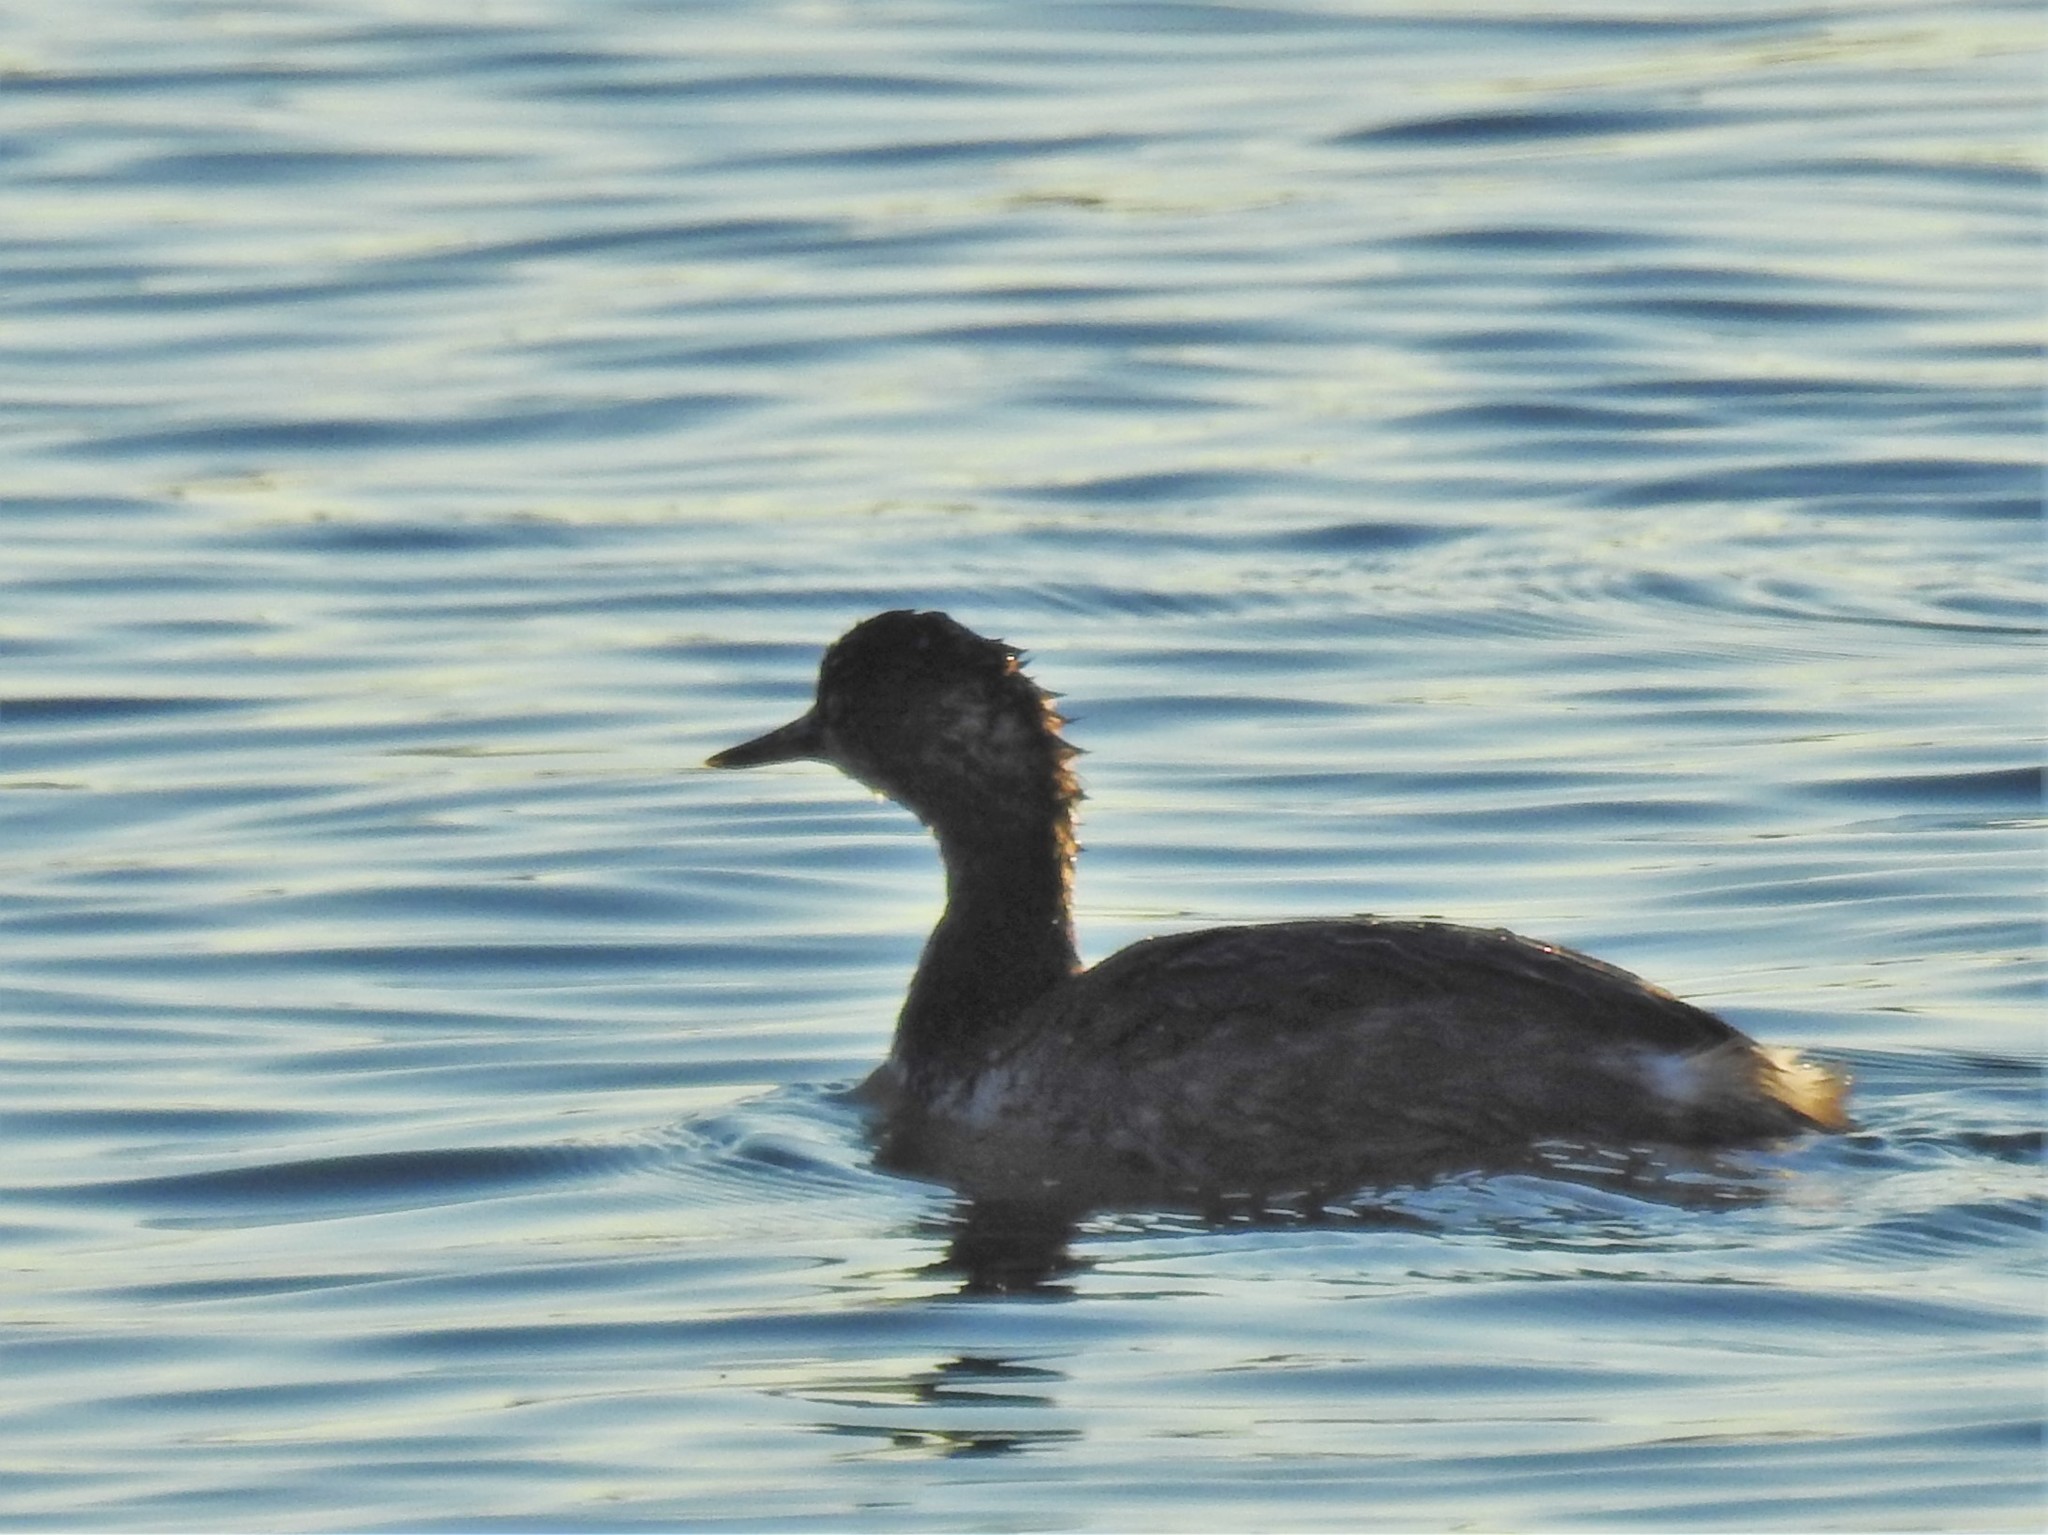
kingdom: Animalia
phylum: Chordata
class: Aves
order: Podicipediformes
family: Podicipedidae
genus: Podiceps
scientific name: Podiceps nigricollis
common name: Black-necked grebe
